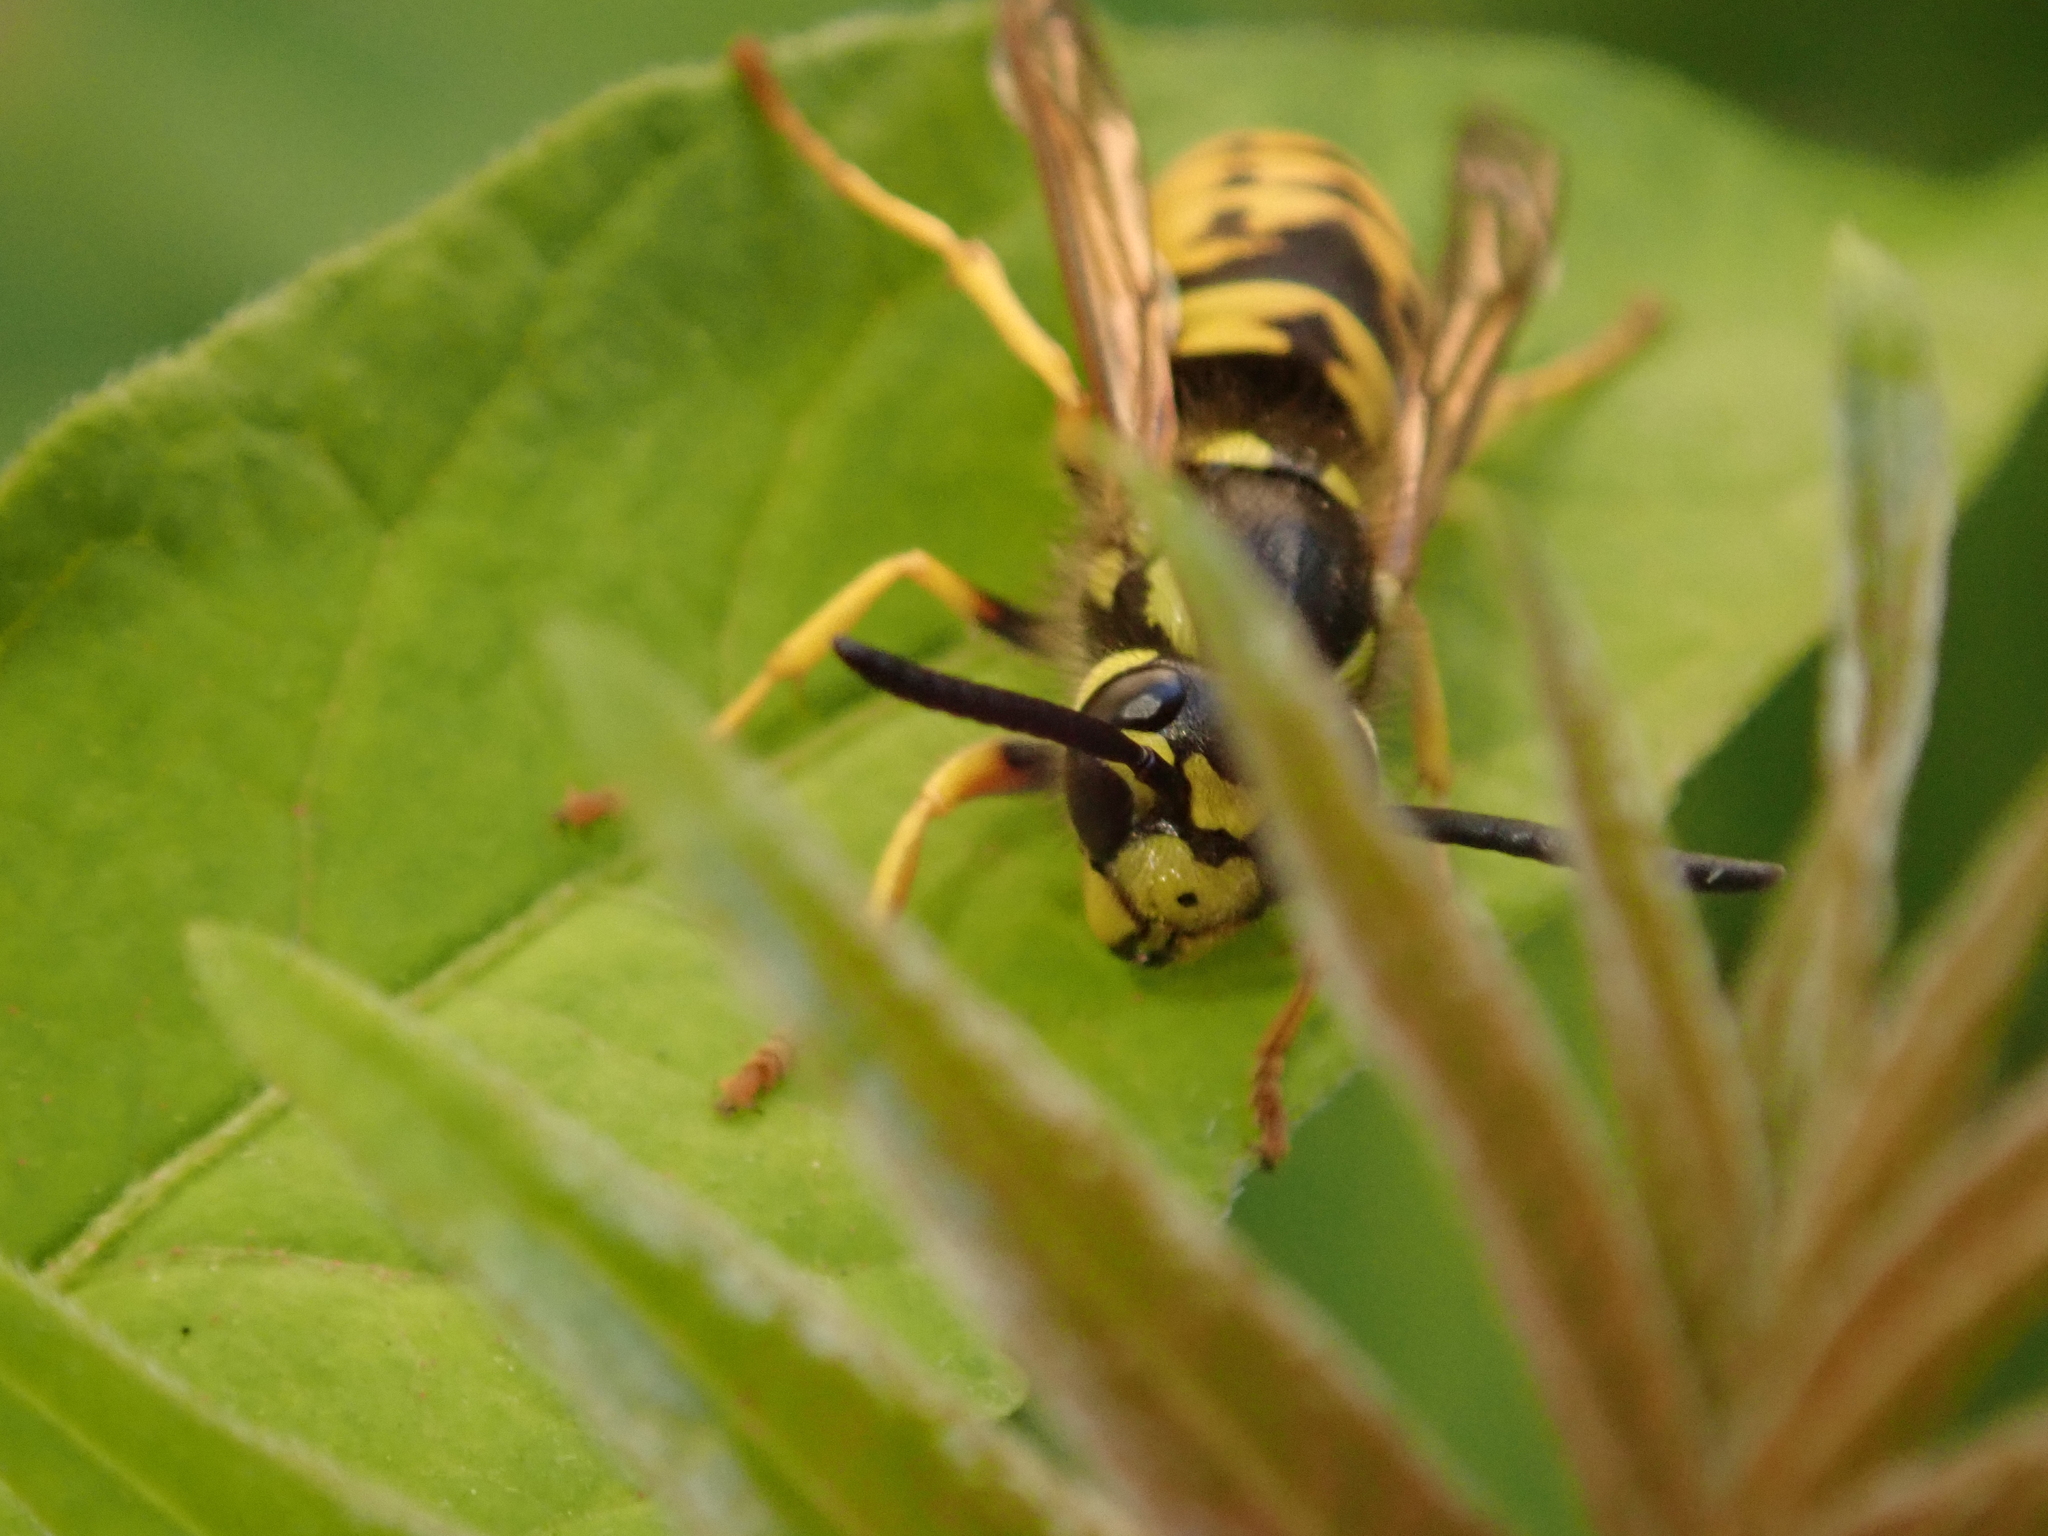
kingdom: Animalia
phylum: Arthropoda
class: Insecta
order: Hymenoptera
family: Vespidae
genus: Vespula
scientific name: Vespula germanica
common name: German wasp
